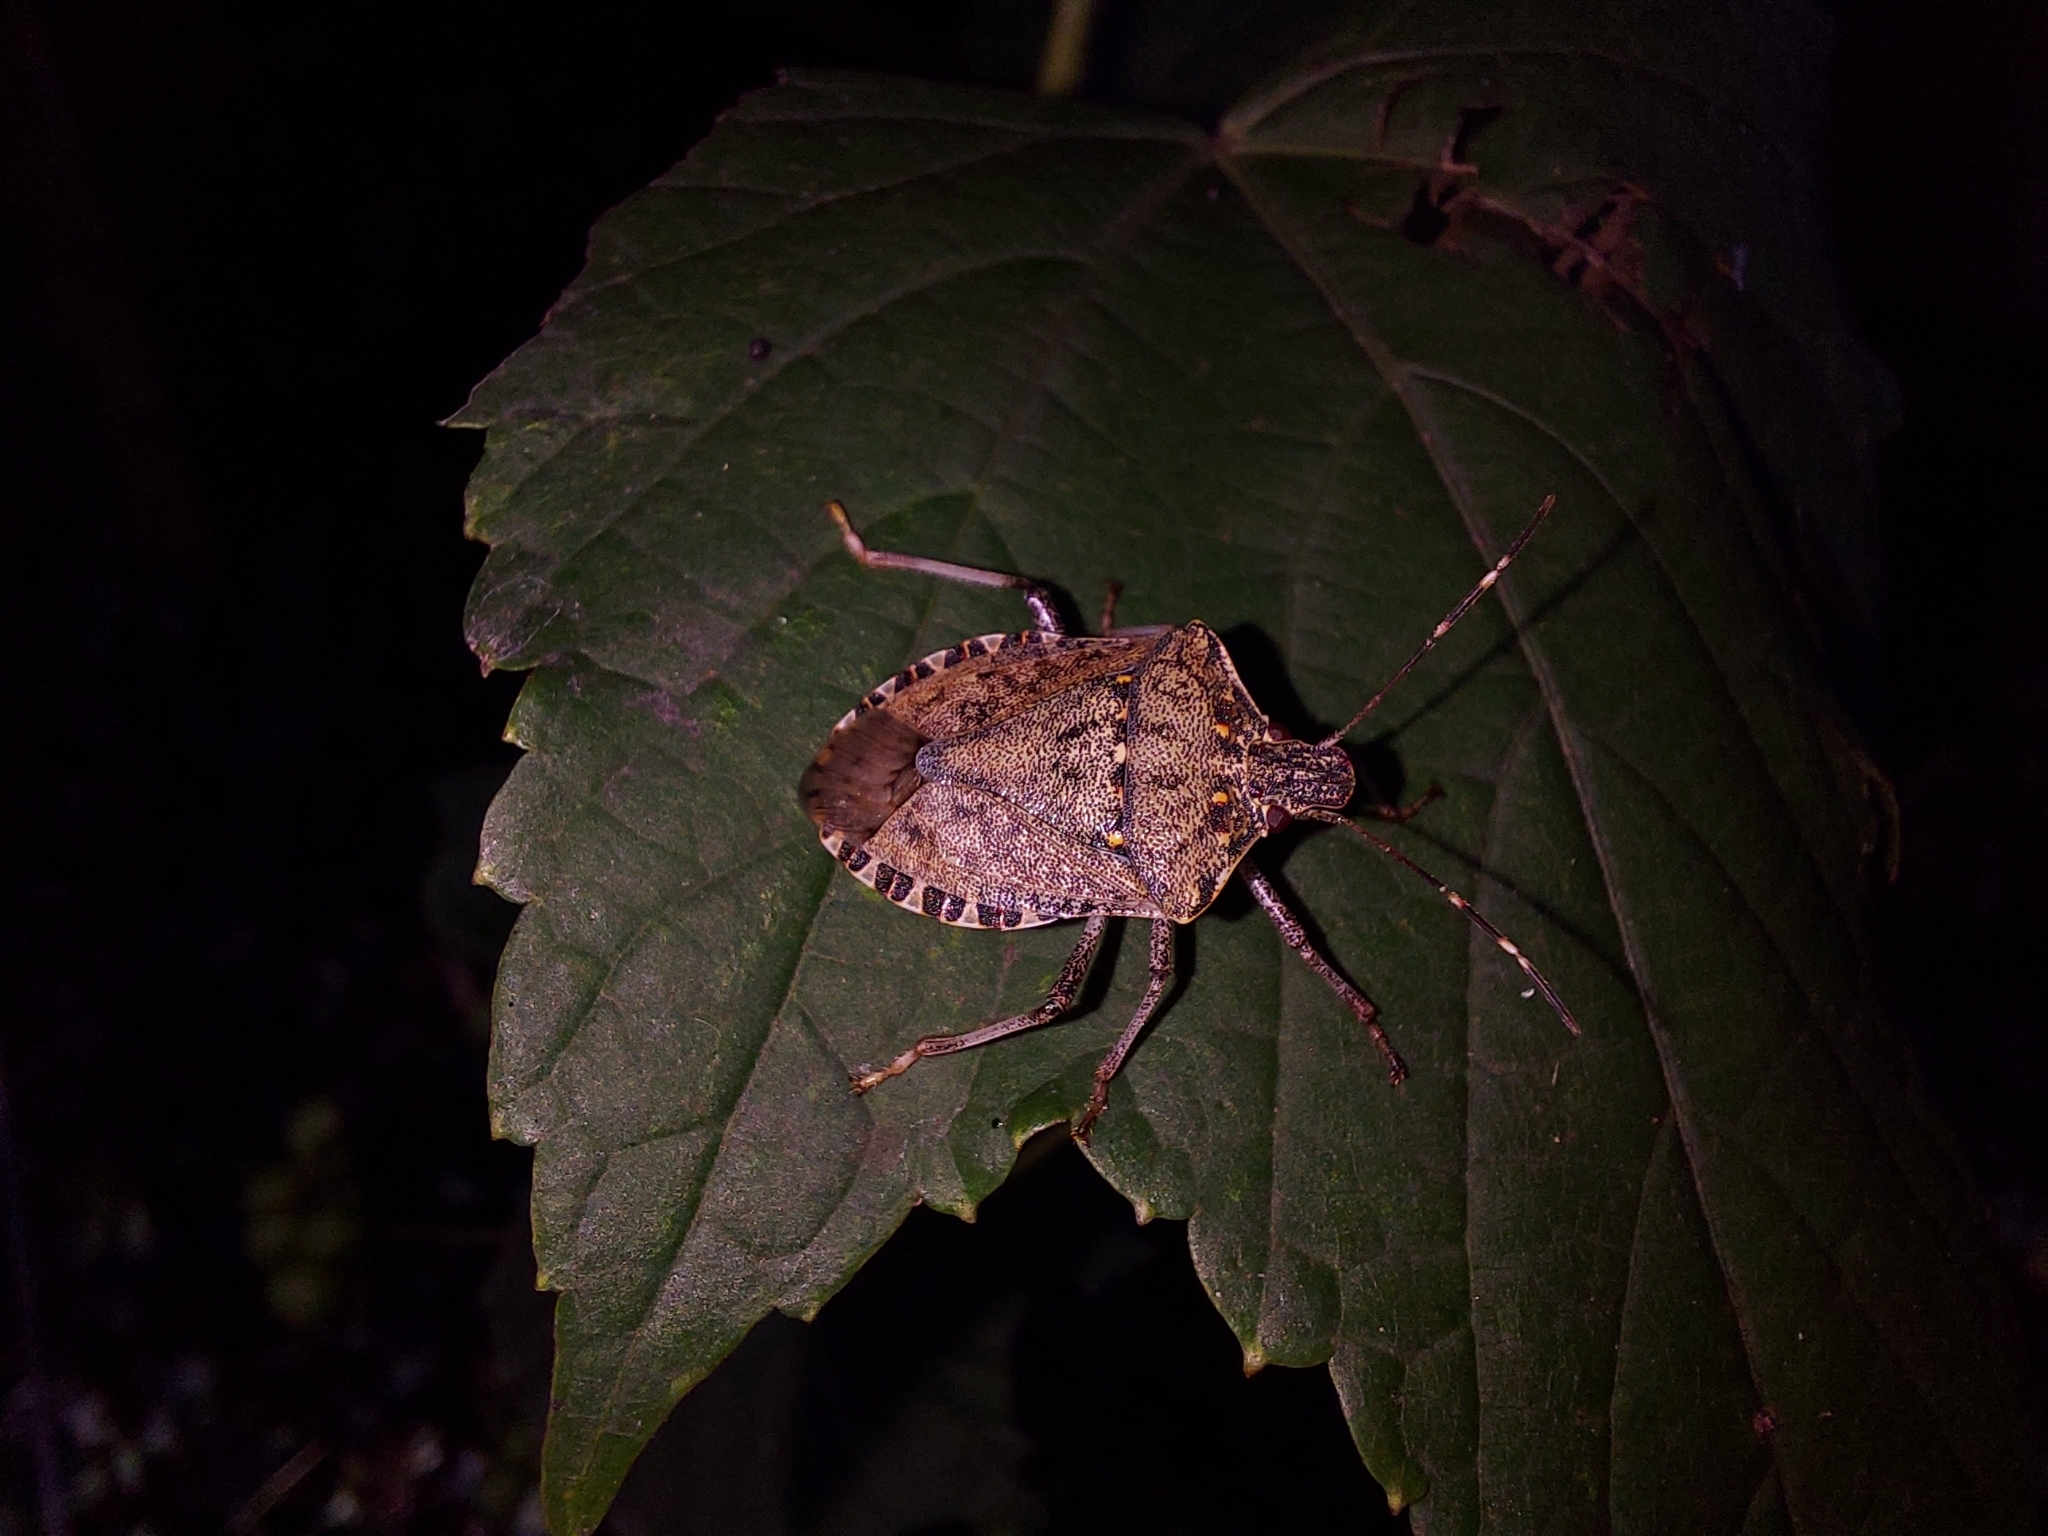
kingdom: Animalia
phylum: Arthropoda
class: Insecta
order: Hemiptera
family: Pentatomidae
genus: Halyomorpha
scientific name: Halyomorpha halys
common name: Brown marmorated stink bug
